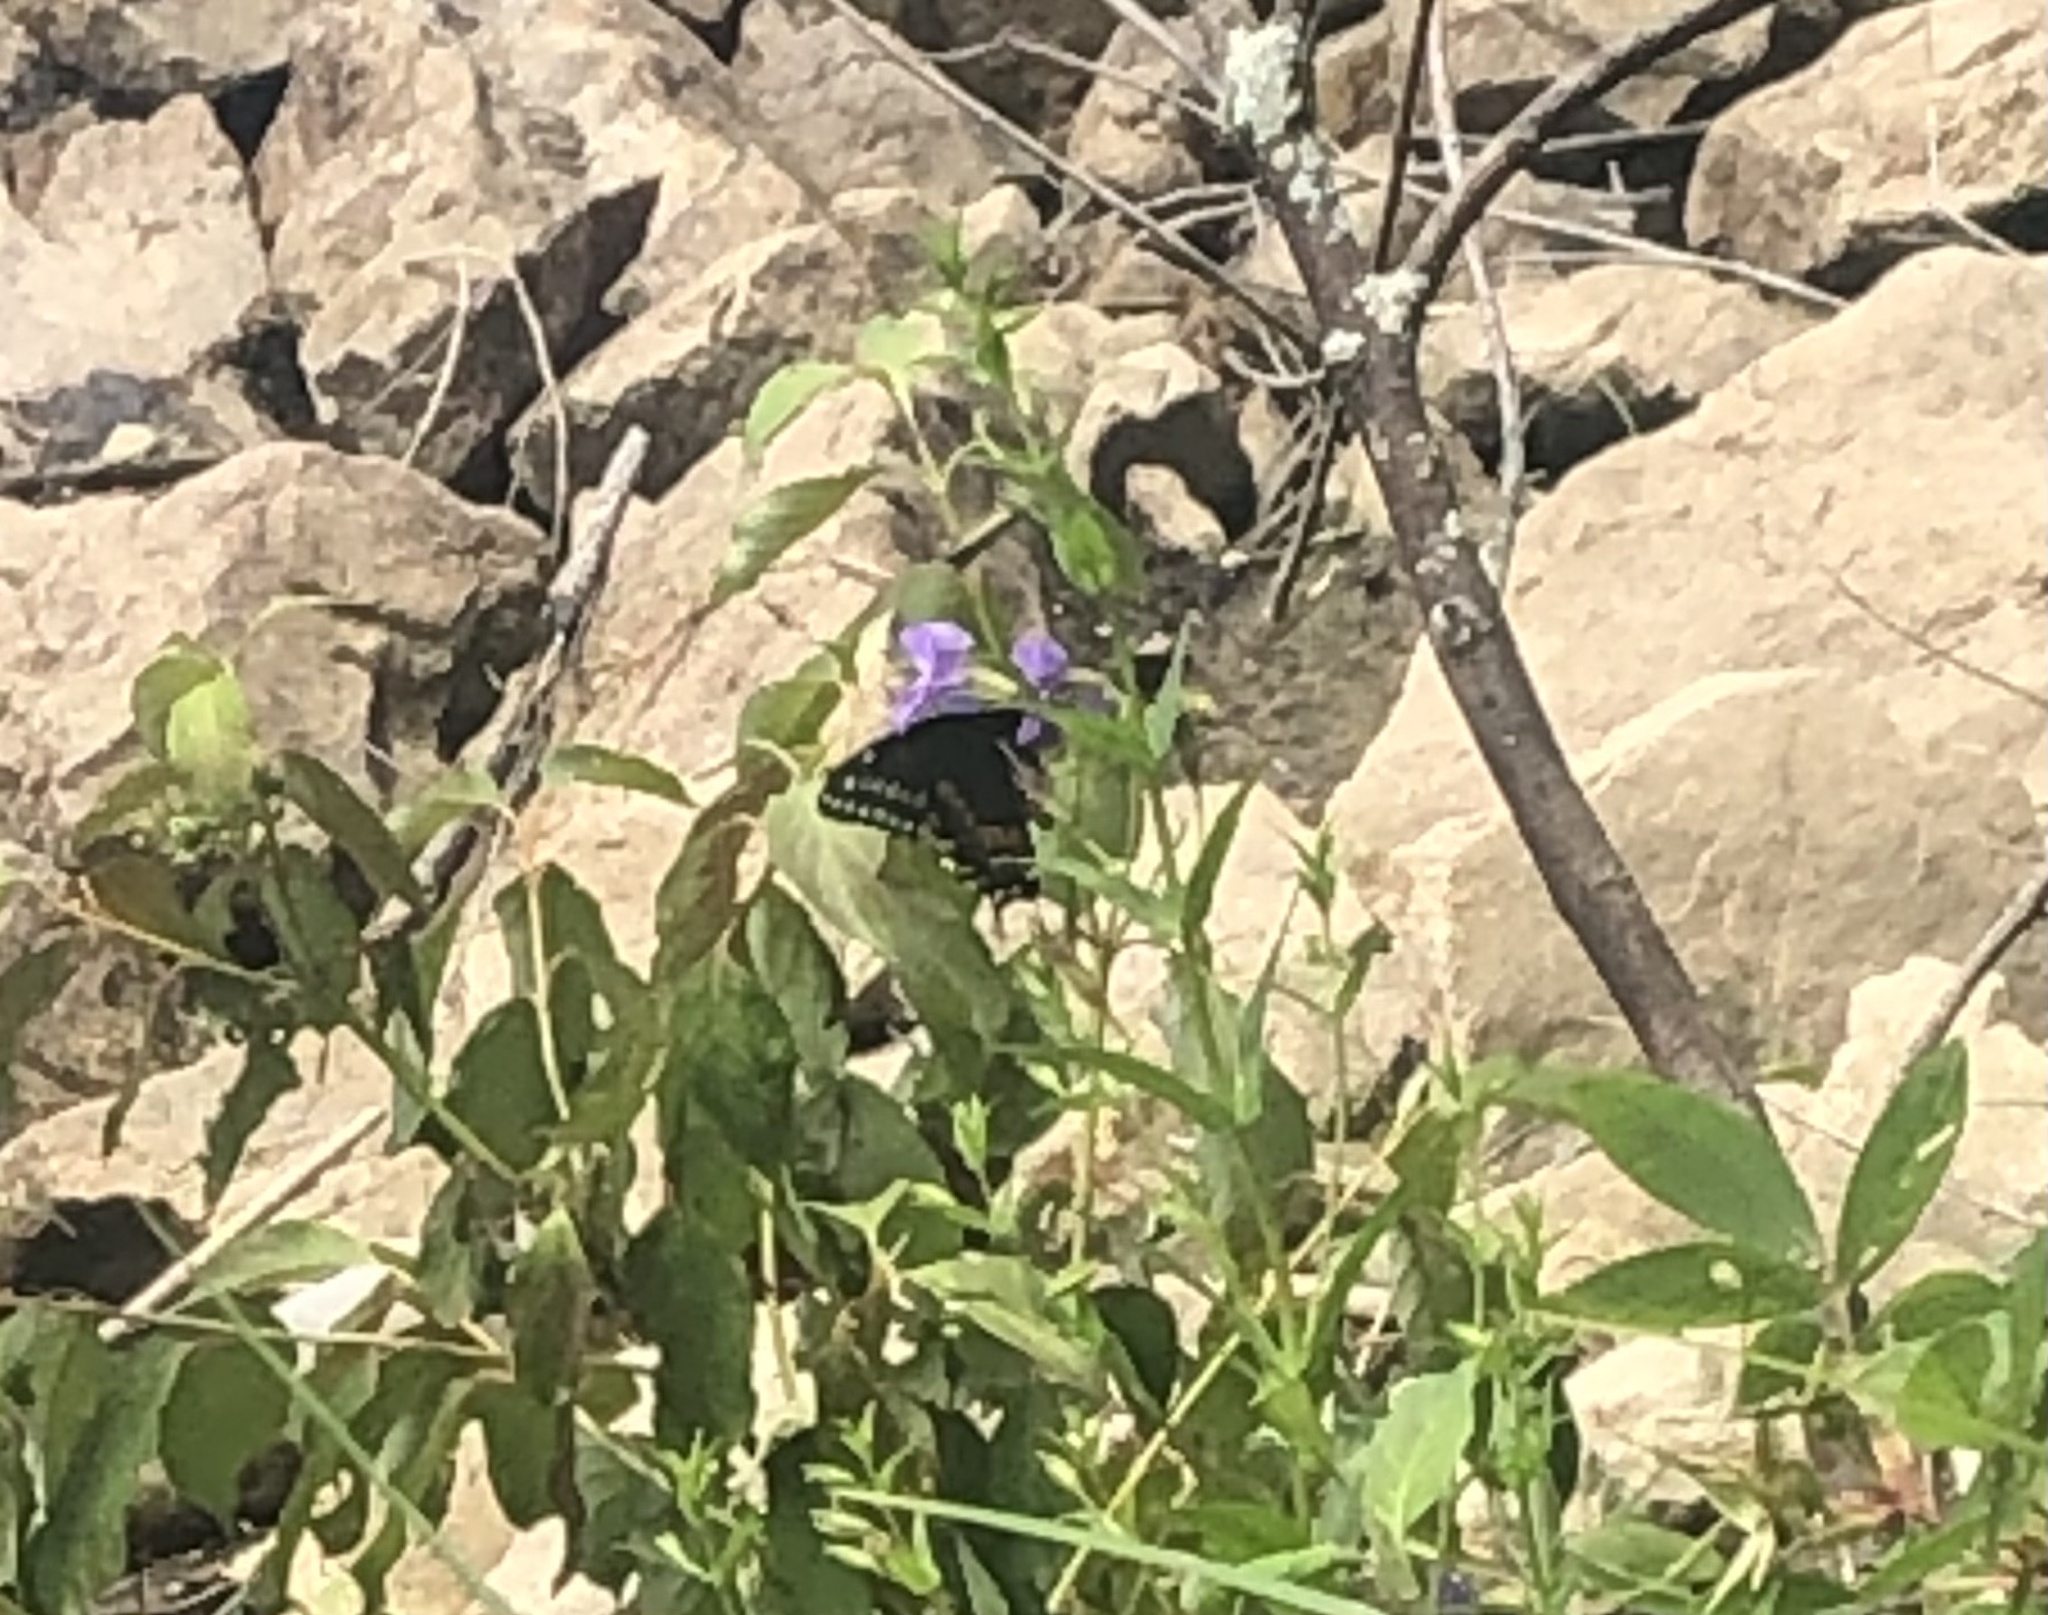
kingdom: Animalia
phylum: Arthropoda
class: Insecta
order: Lepidoptera
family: Papilionidae
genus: Papilio
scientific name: Papilio polyxenes
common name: Black swallowtail
